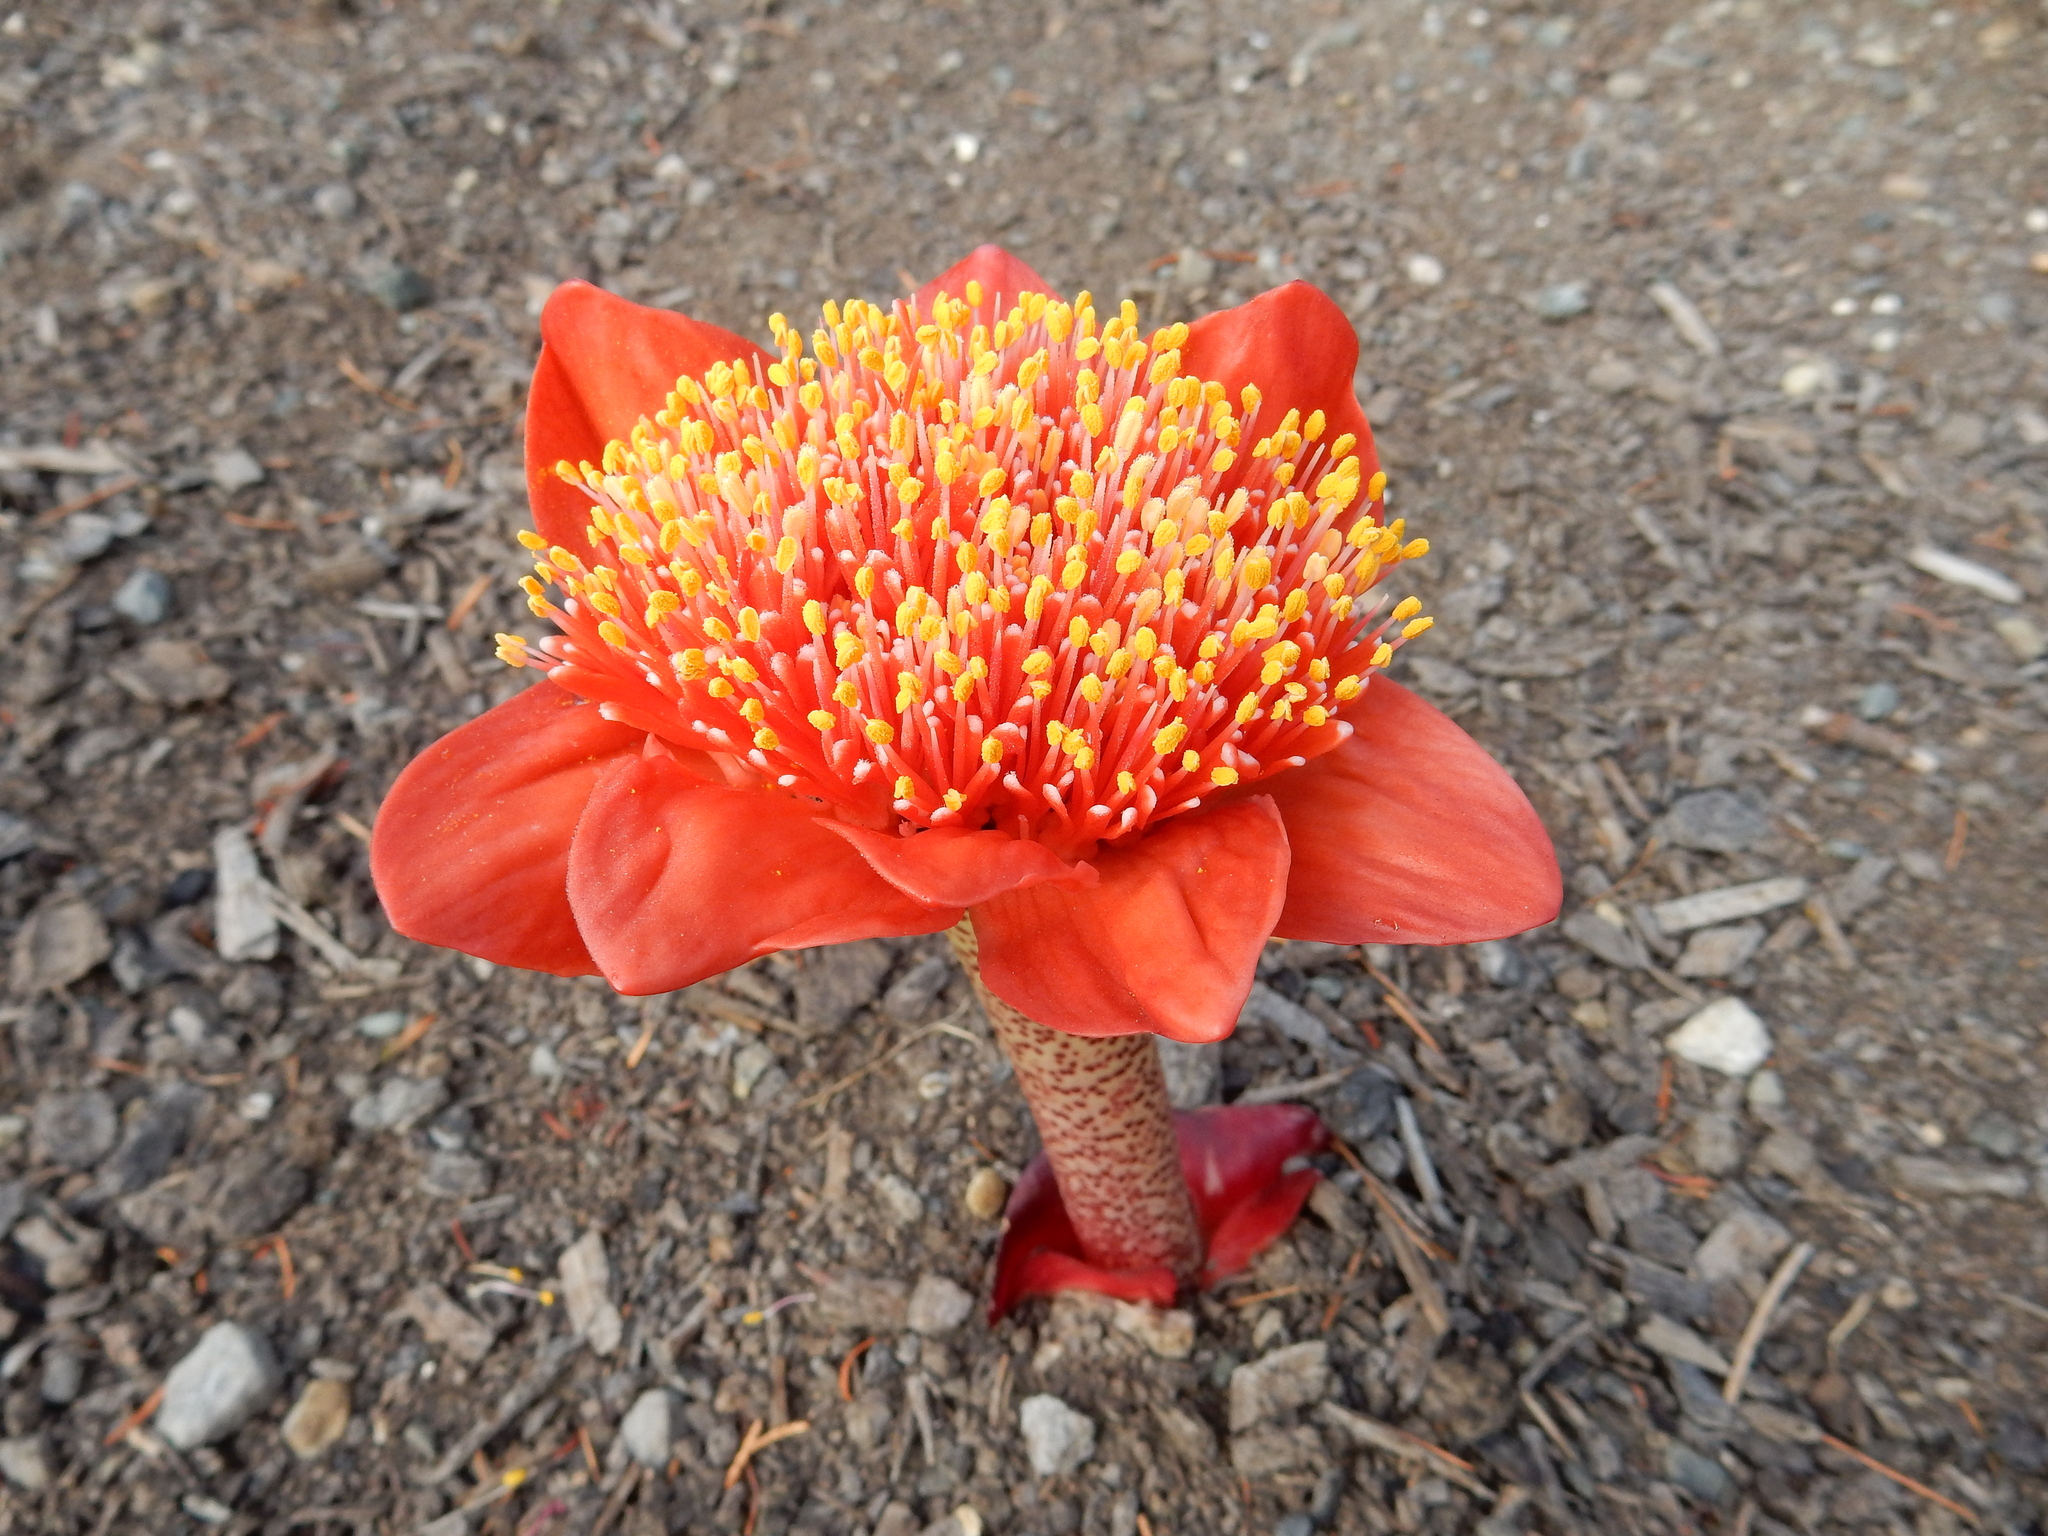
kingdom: Plantae
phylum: Tracheophyta
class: Liliopsida
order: Asparagales
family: Amaryllidaceae
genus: Haemanthus
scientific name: Haemanthus coccineus
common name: Cape-tulip
